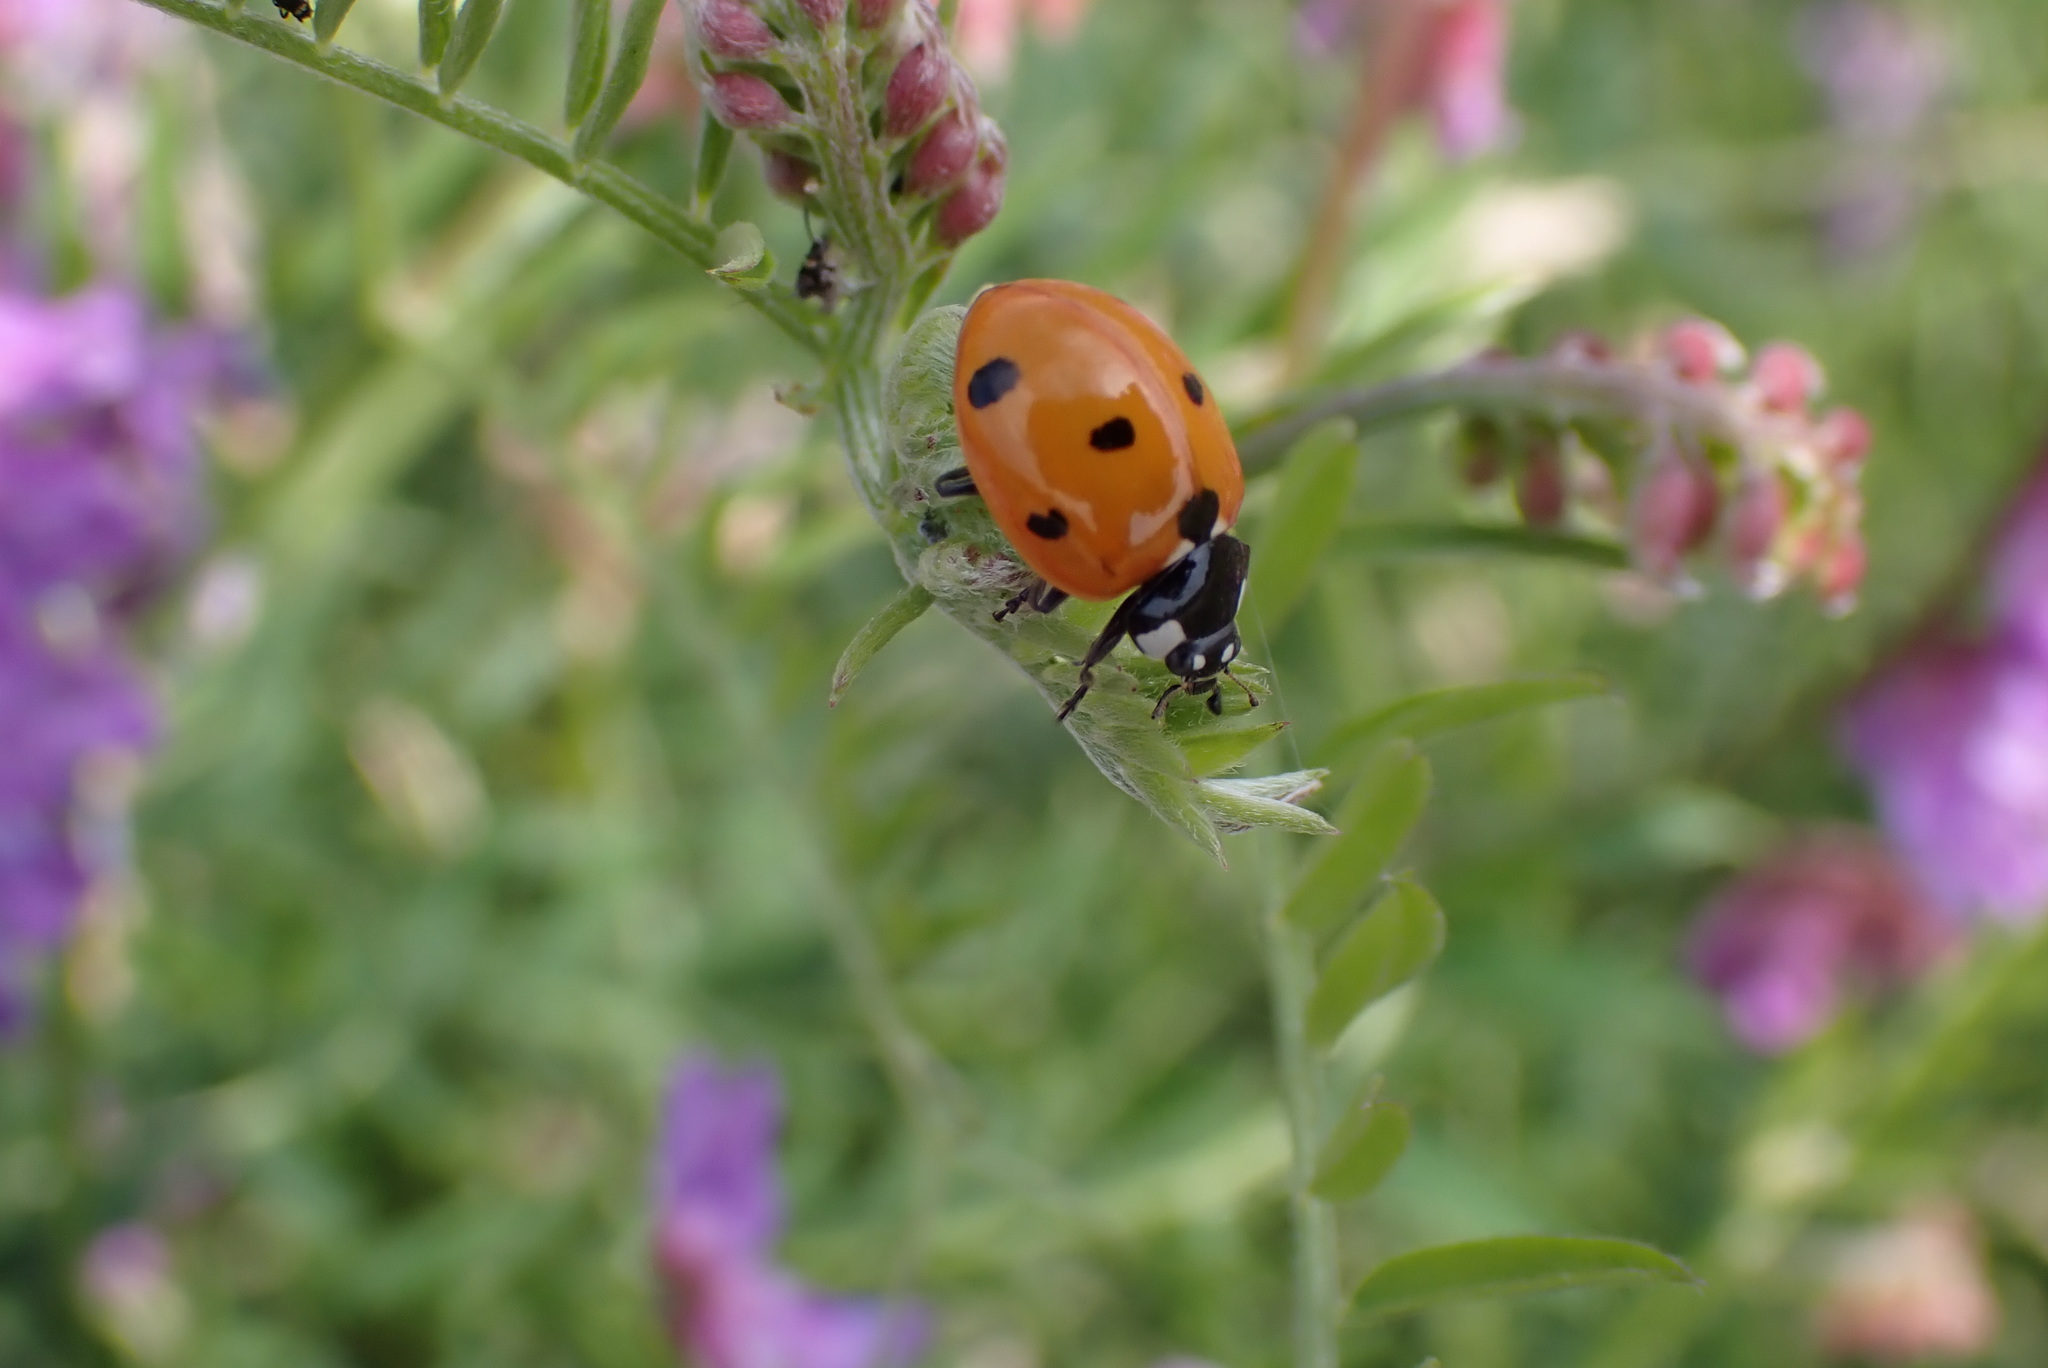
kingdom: Animalia
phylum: Arthropoda
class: Insecta
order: Coleoptera
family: Coccinellidae
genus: Coccinella
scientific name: Coccinella septempunctata
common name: Sevenspotted lady beetle
